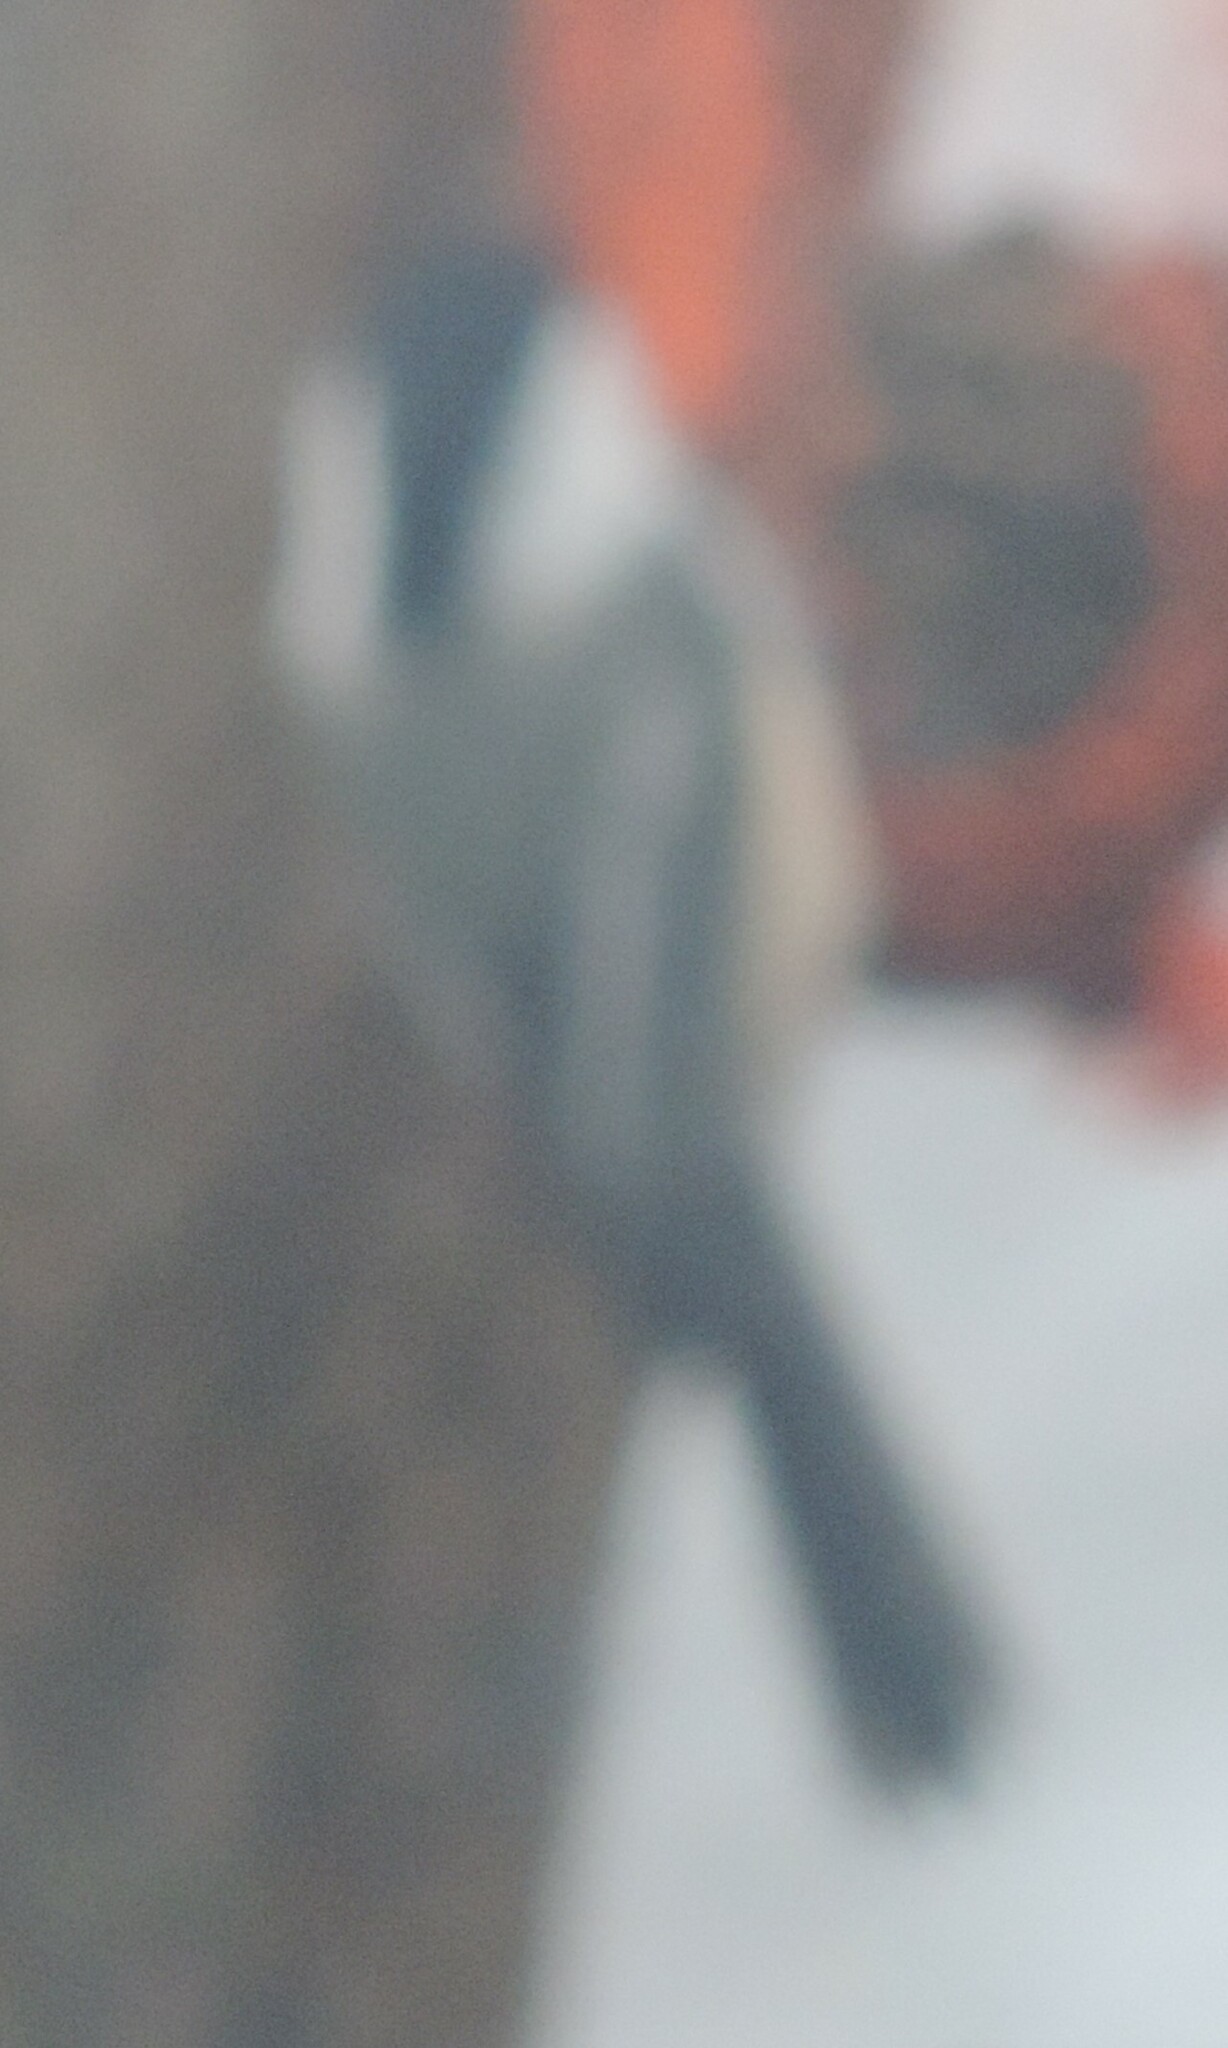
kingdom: Animalia
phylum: Chordata
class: Aves
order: Passeriformes
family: Paridae
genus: Poecile
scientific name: Poecile atricapillus
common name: Black-capped chickadee
